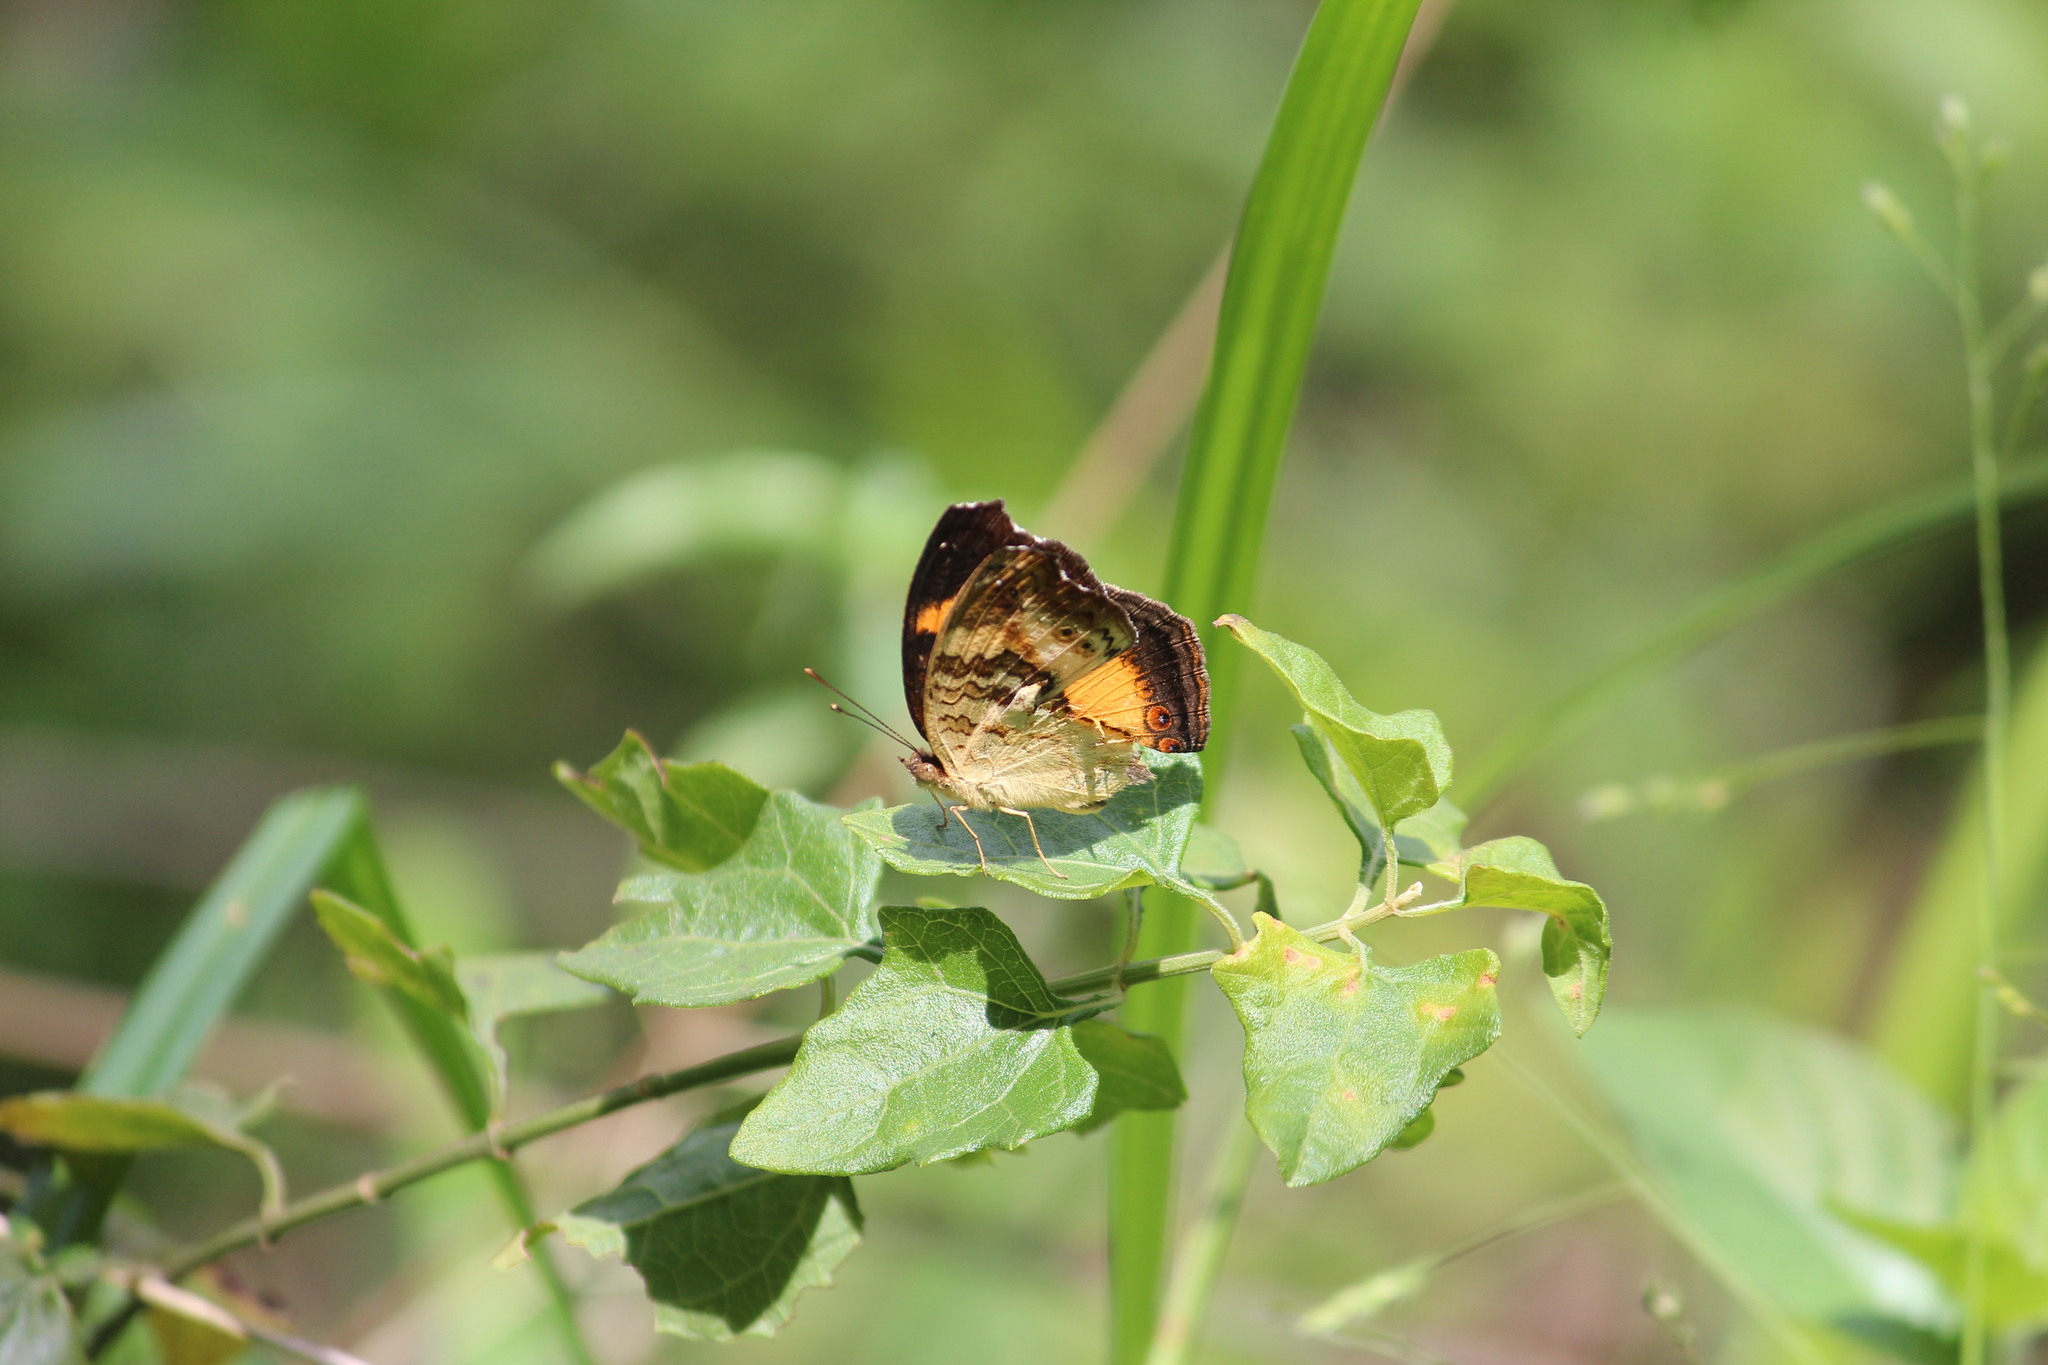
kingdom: Animalia
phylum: Arthropoda
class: Insecta
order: Lepidoptera
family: Nymphalidae
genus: Junonia
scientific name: Junonia terea
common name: Soldier pansy
